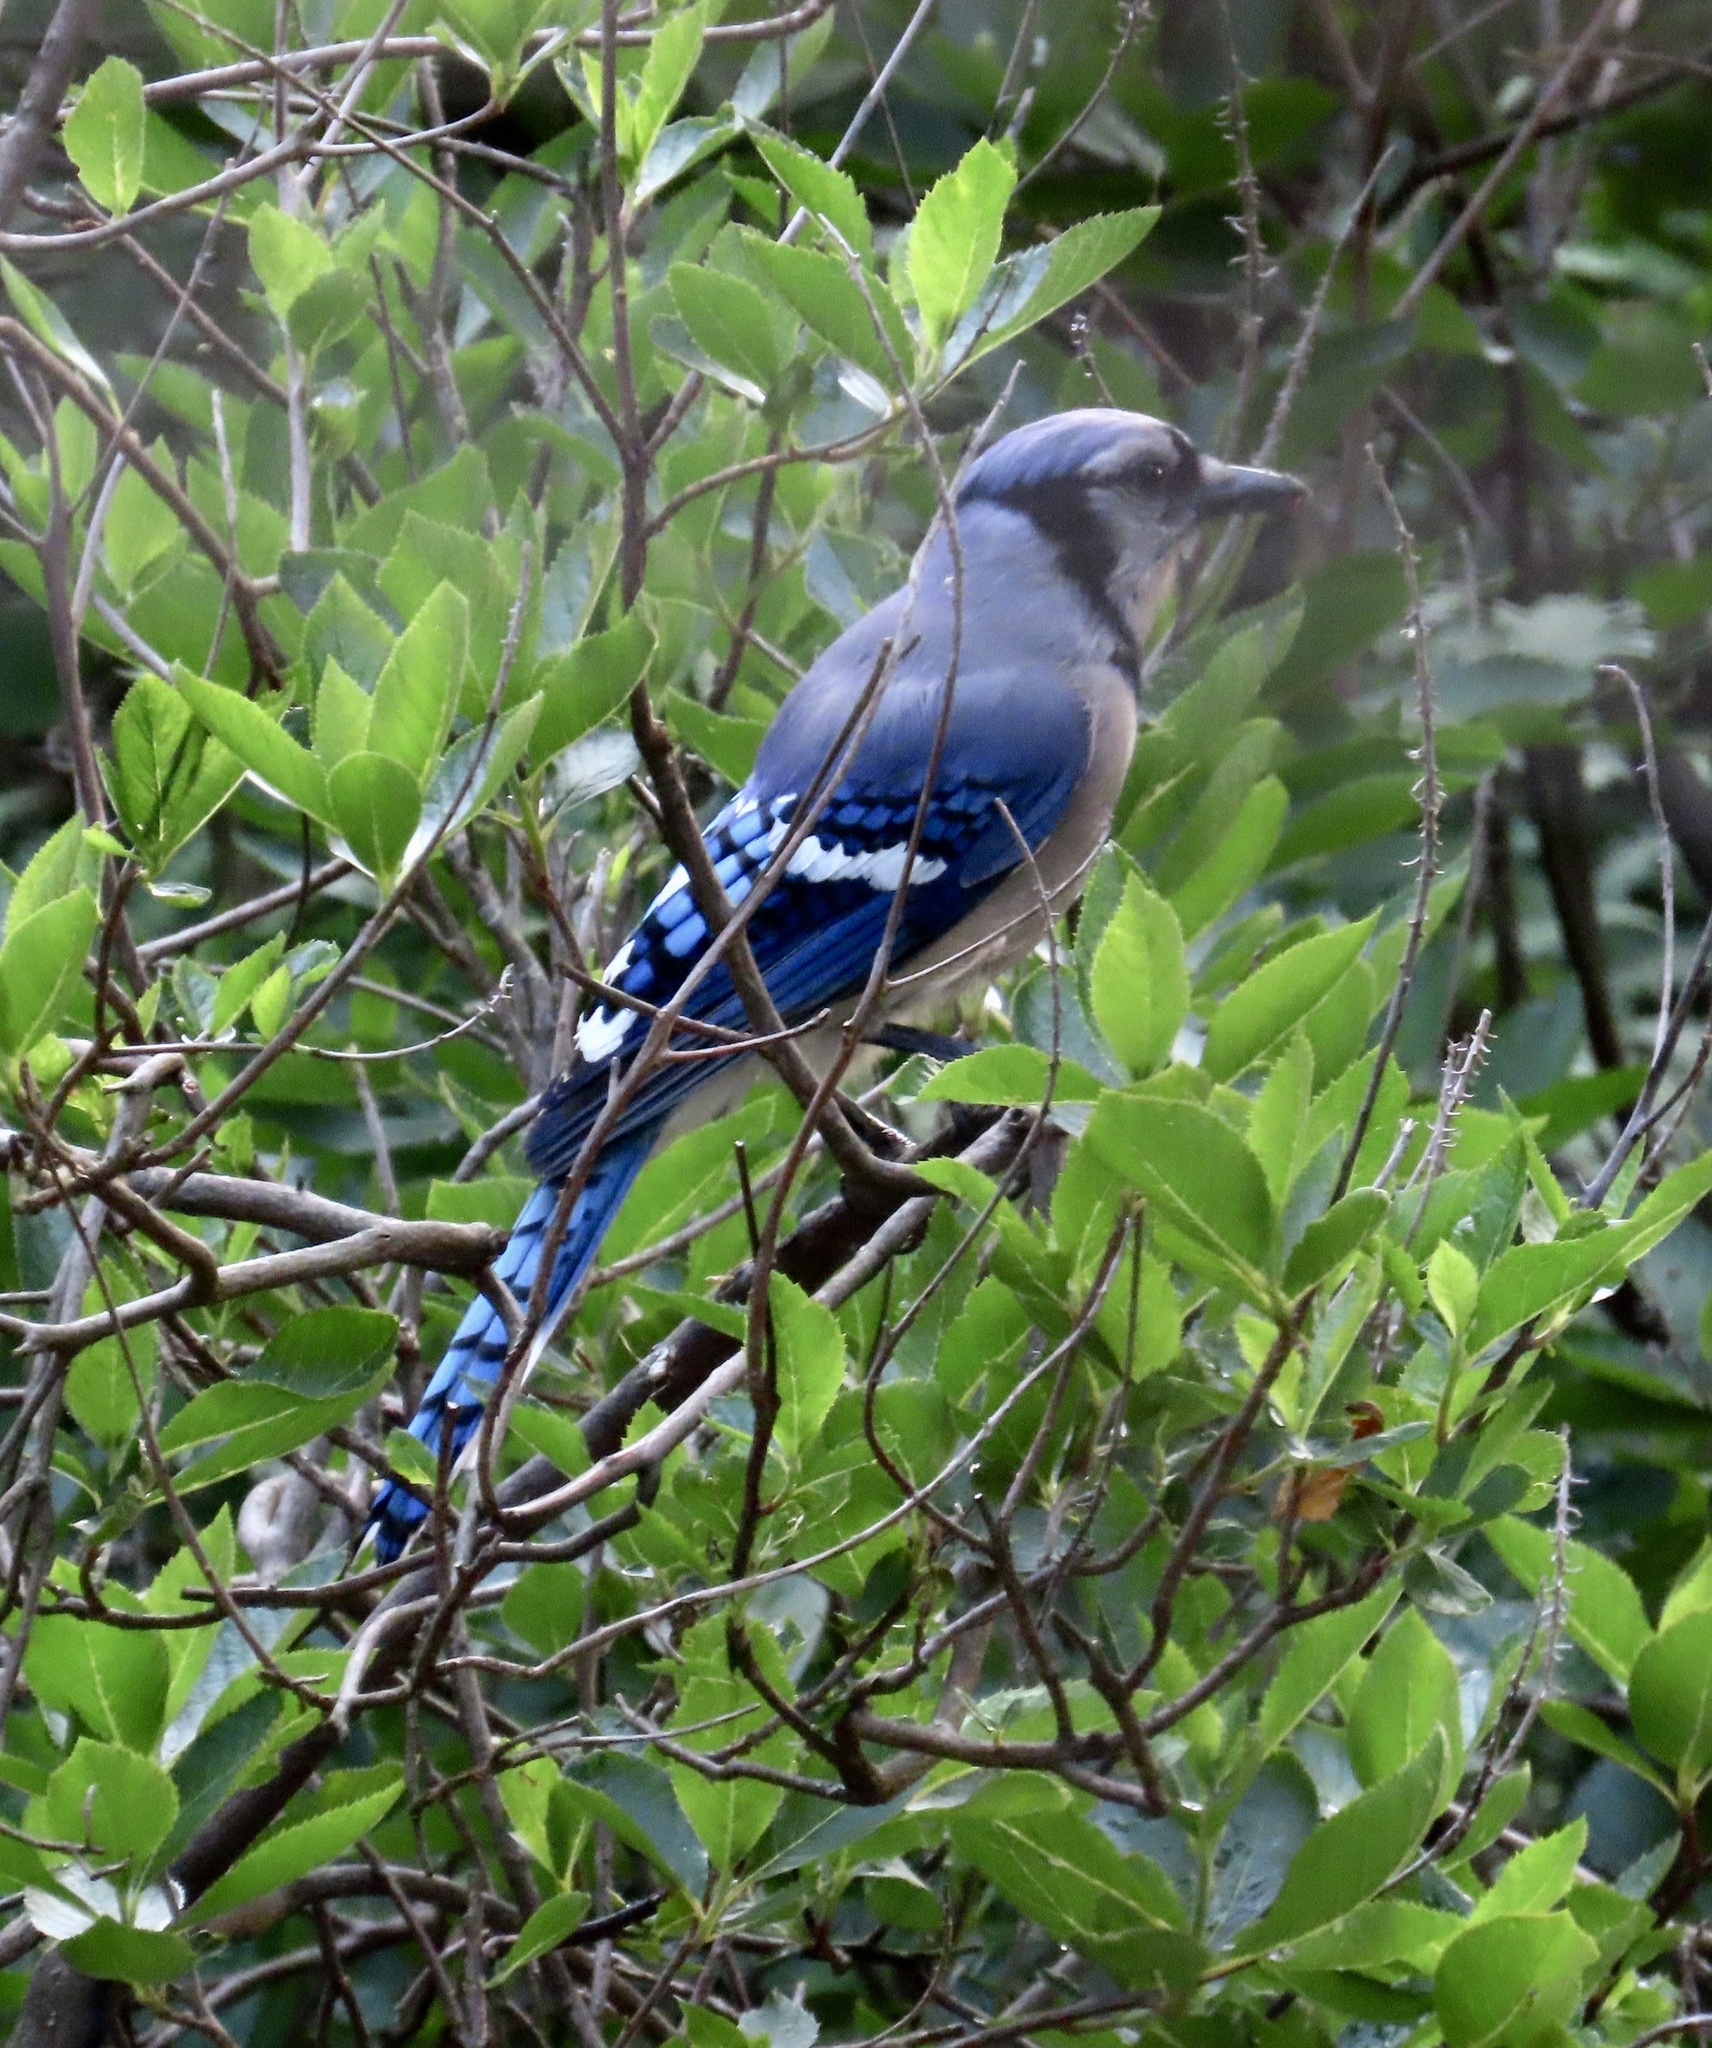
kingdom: Animalia
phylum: Chordata
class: Aves
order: Passeriformes
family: Corvidae
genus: Cyanocitta
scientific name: Cyanocitta cristata
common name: Blue jay
